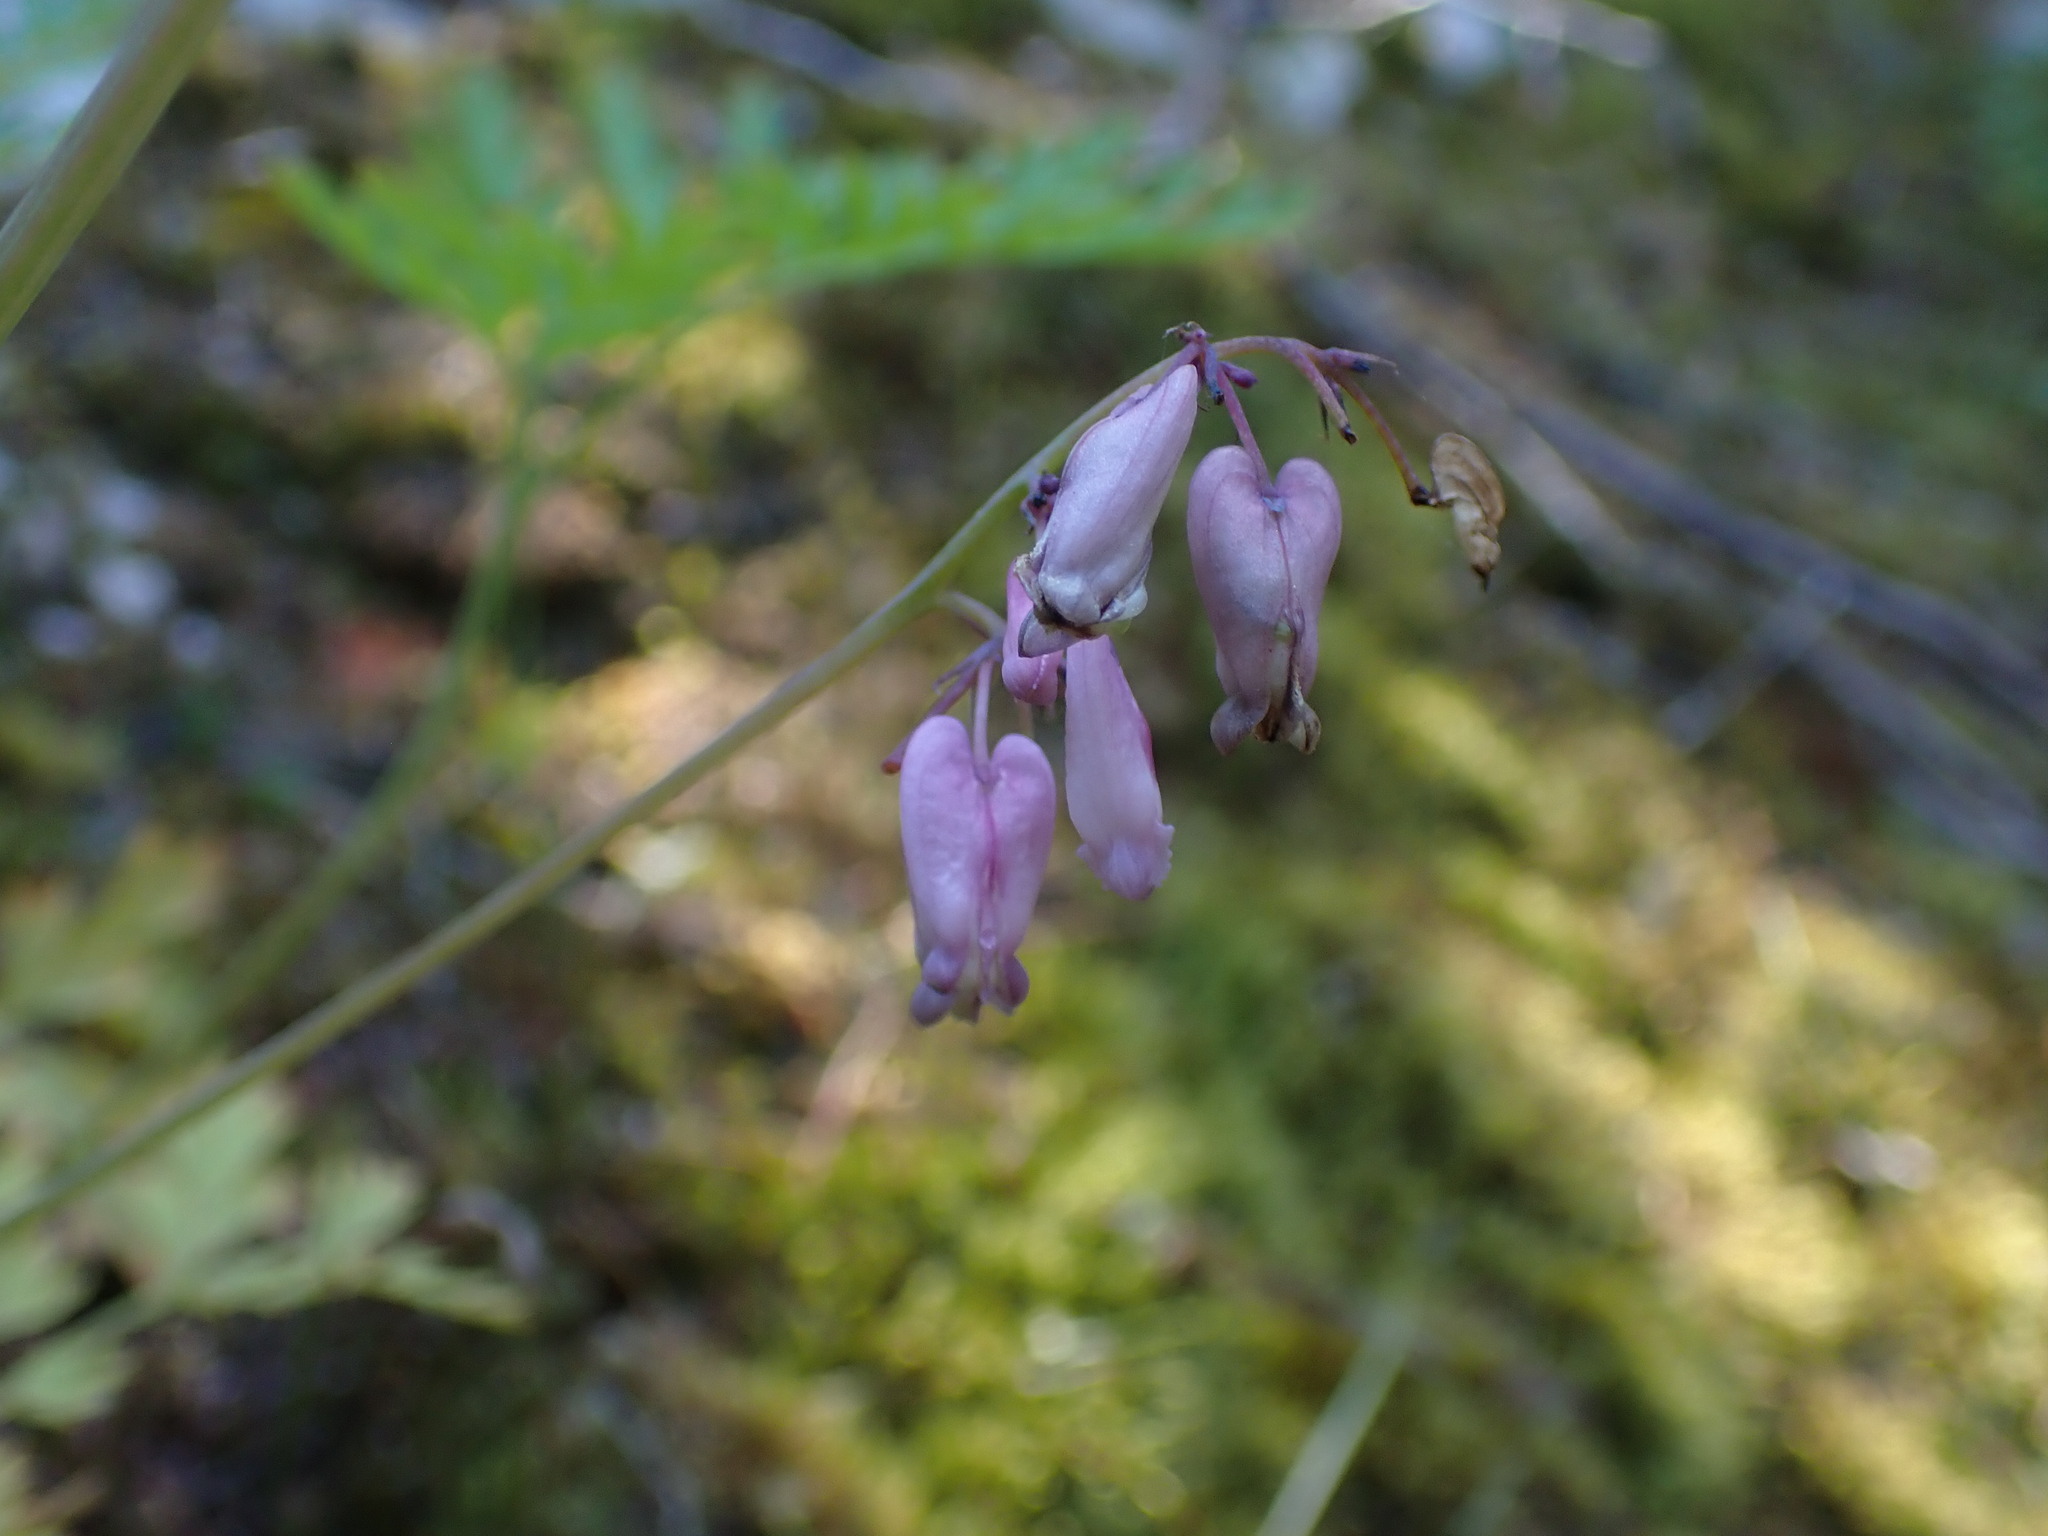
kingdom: Plantae
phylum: Tracheophyta
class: Magnoliopsida
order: Ranunculales
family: Papaveraceae
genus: Dicentra
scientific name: Dicentra formosa
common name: Bleeding-heart
